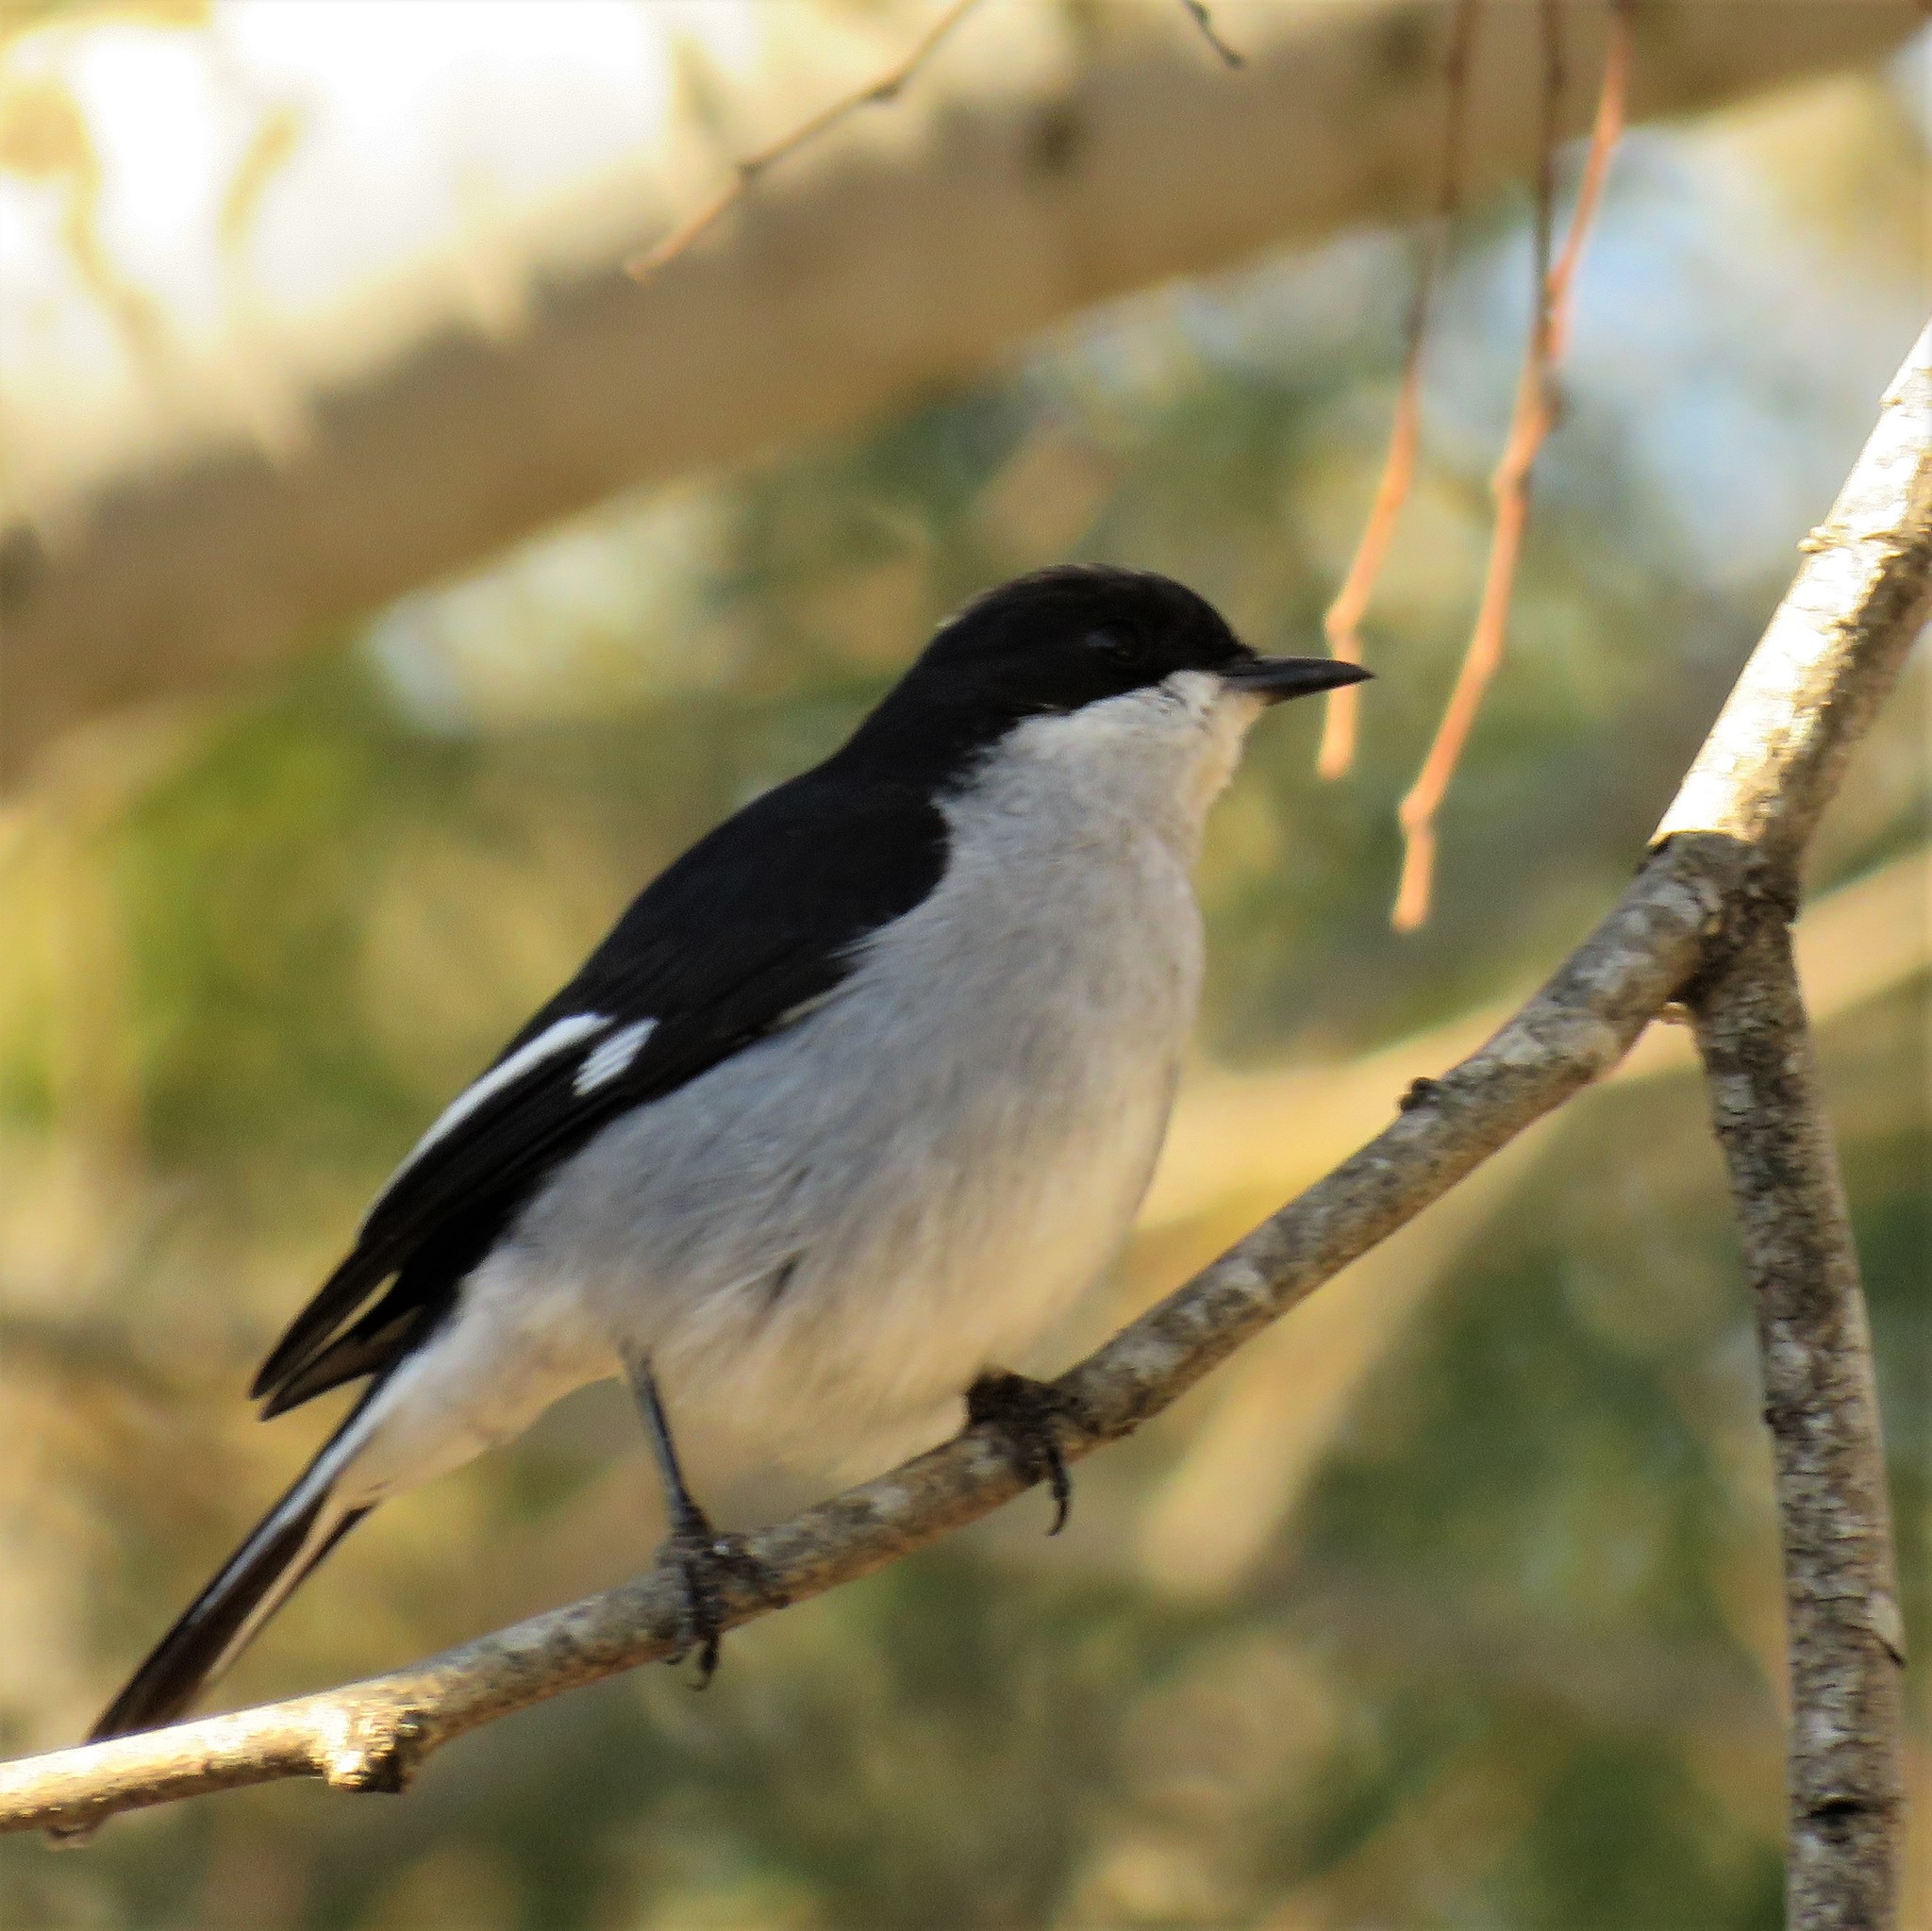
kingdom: Animalia
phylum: Chordata
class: Aves
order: Passeriformes
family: Muscicapidae
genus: Sigelus
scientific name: Sigelus silens
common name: Fiscal flycatcher
